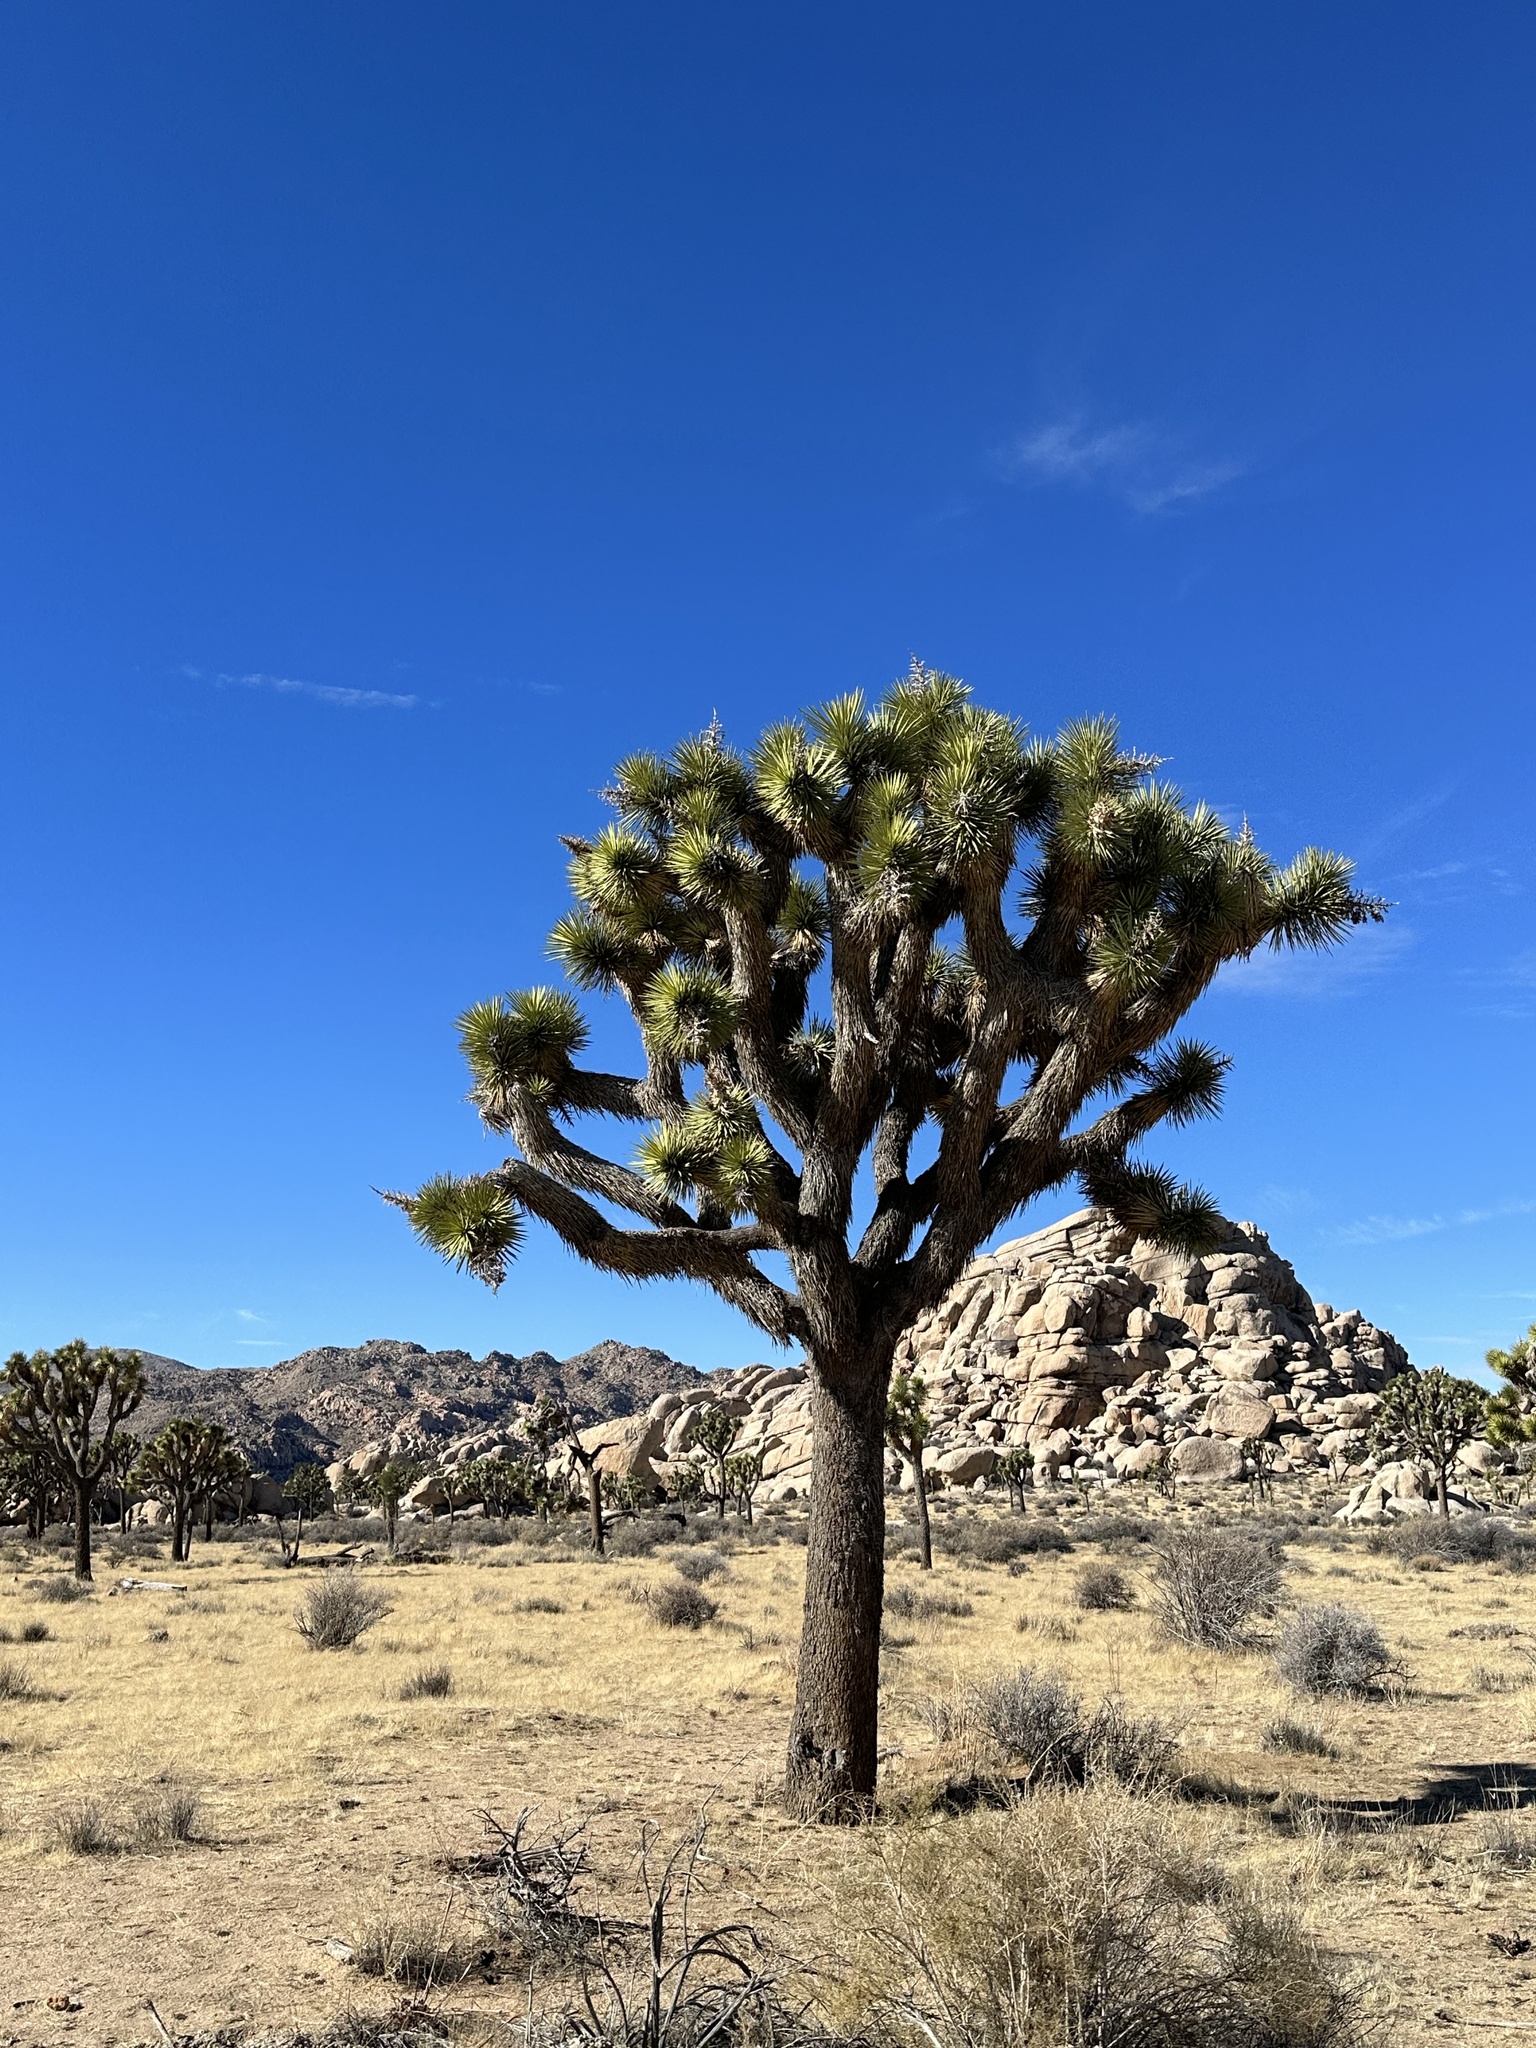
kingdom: Plantae
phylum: Tracheophyta
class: Liliopsida
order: Asparagales
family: Asparagaceae
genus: Yucca
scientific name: Yucca brevifolia
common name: Joshua tree
